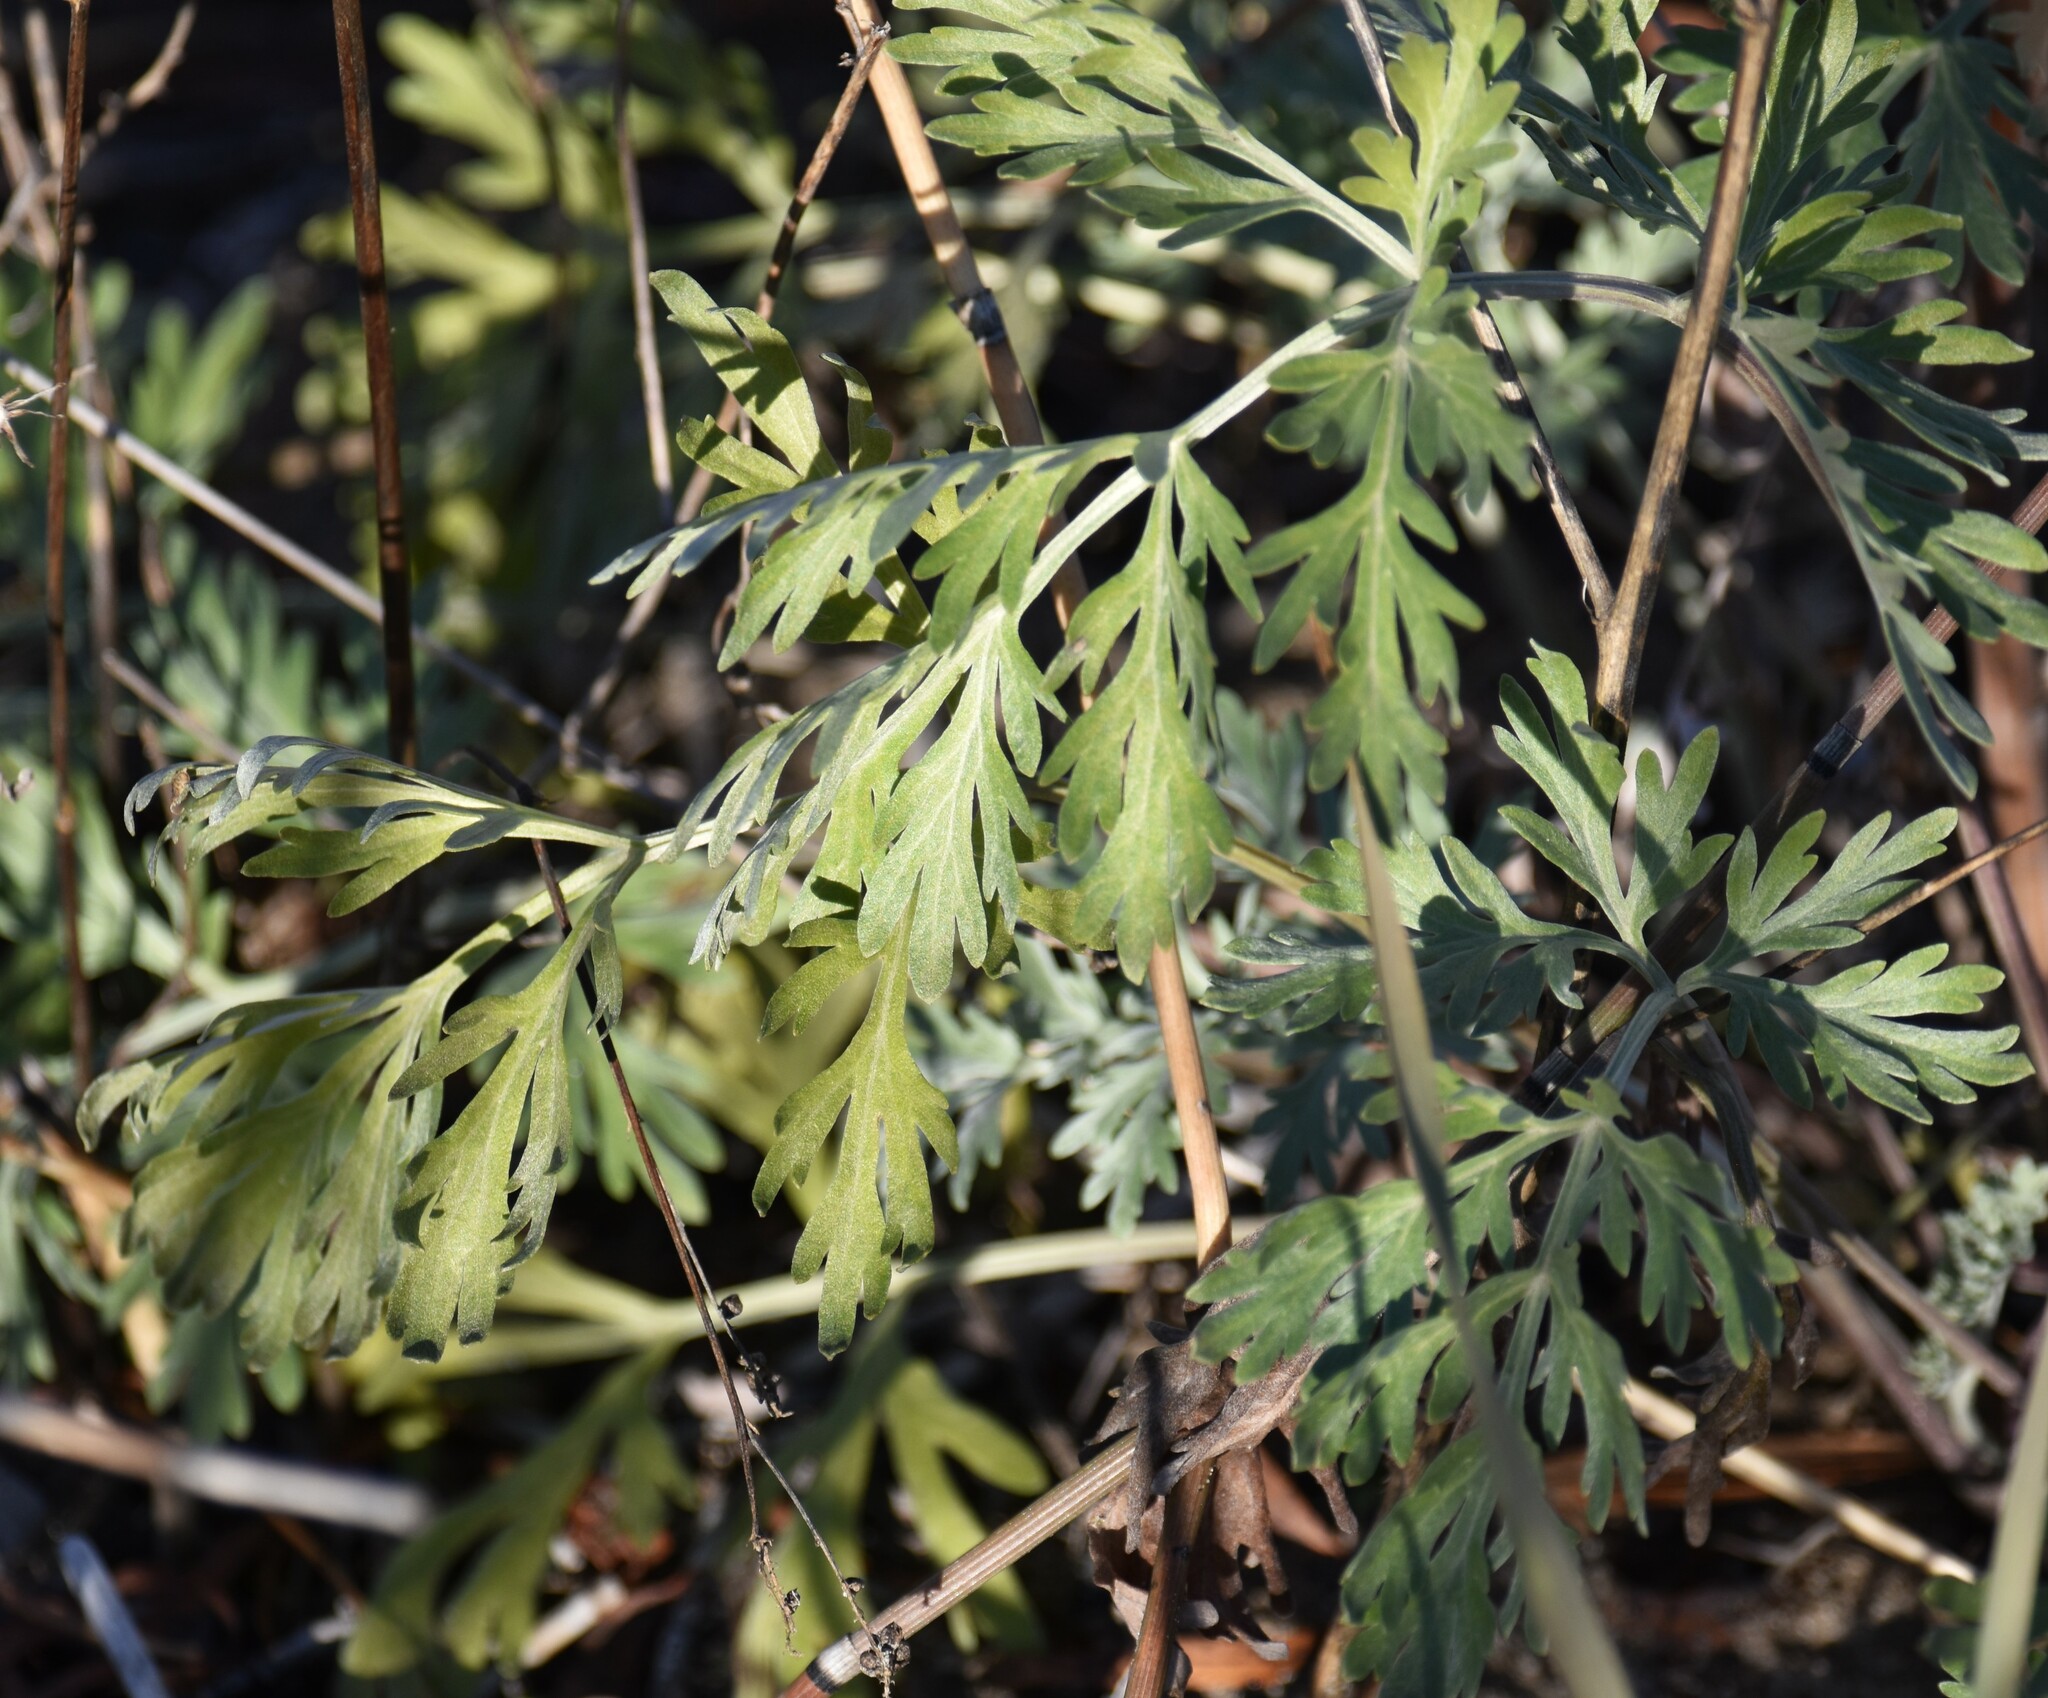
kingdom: Plantae
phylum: Tracheophyta
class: Magnoliopsida
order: Asterales
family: Asteraceae
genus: Artemisia
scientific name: Artemisia absinthium
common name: Wormwood
